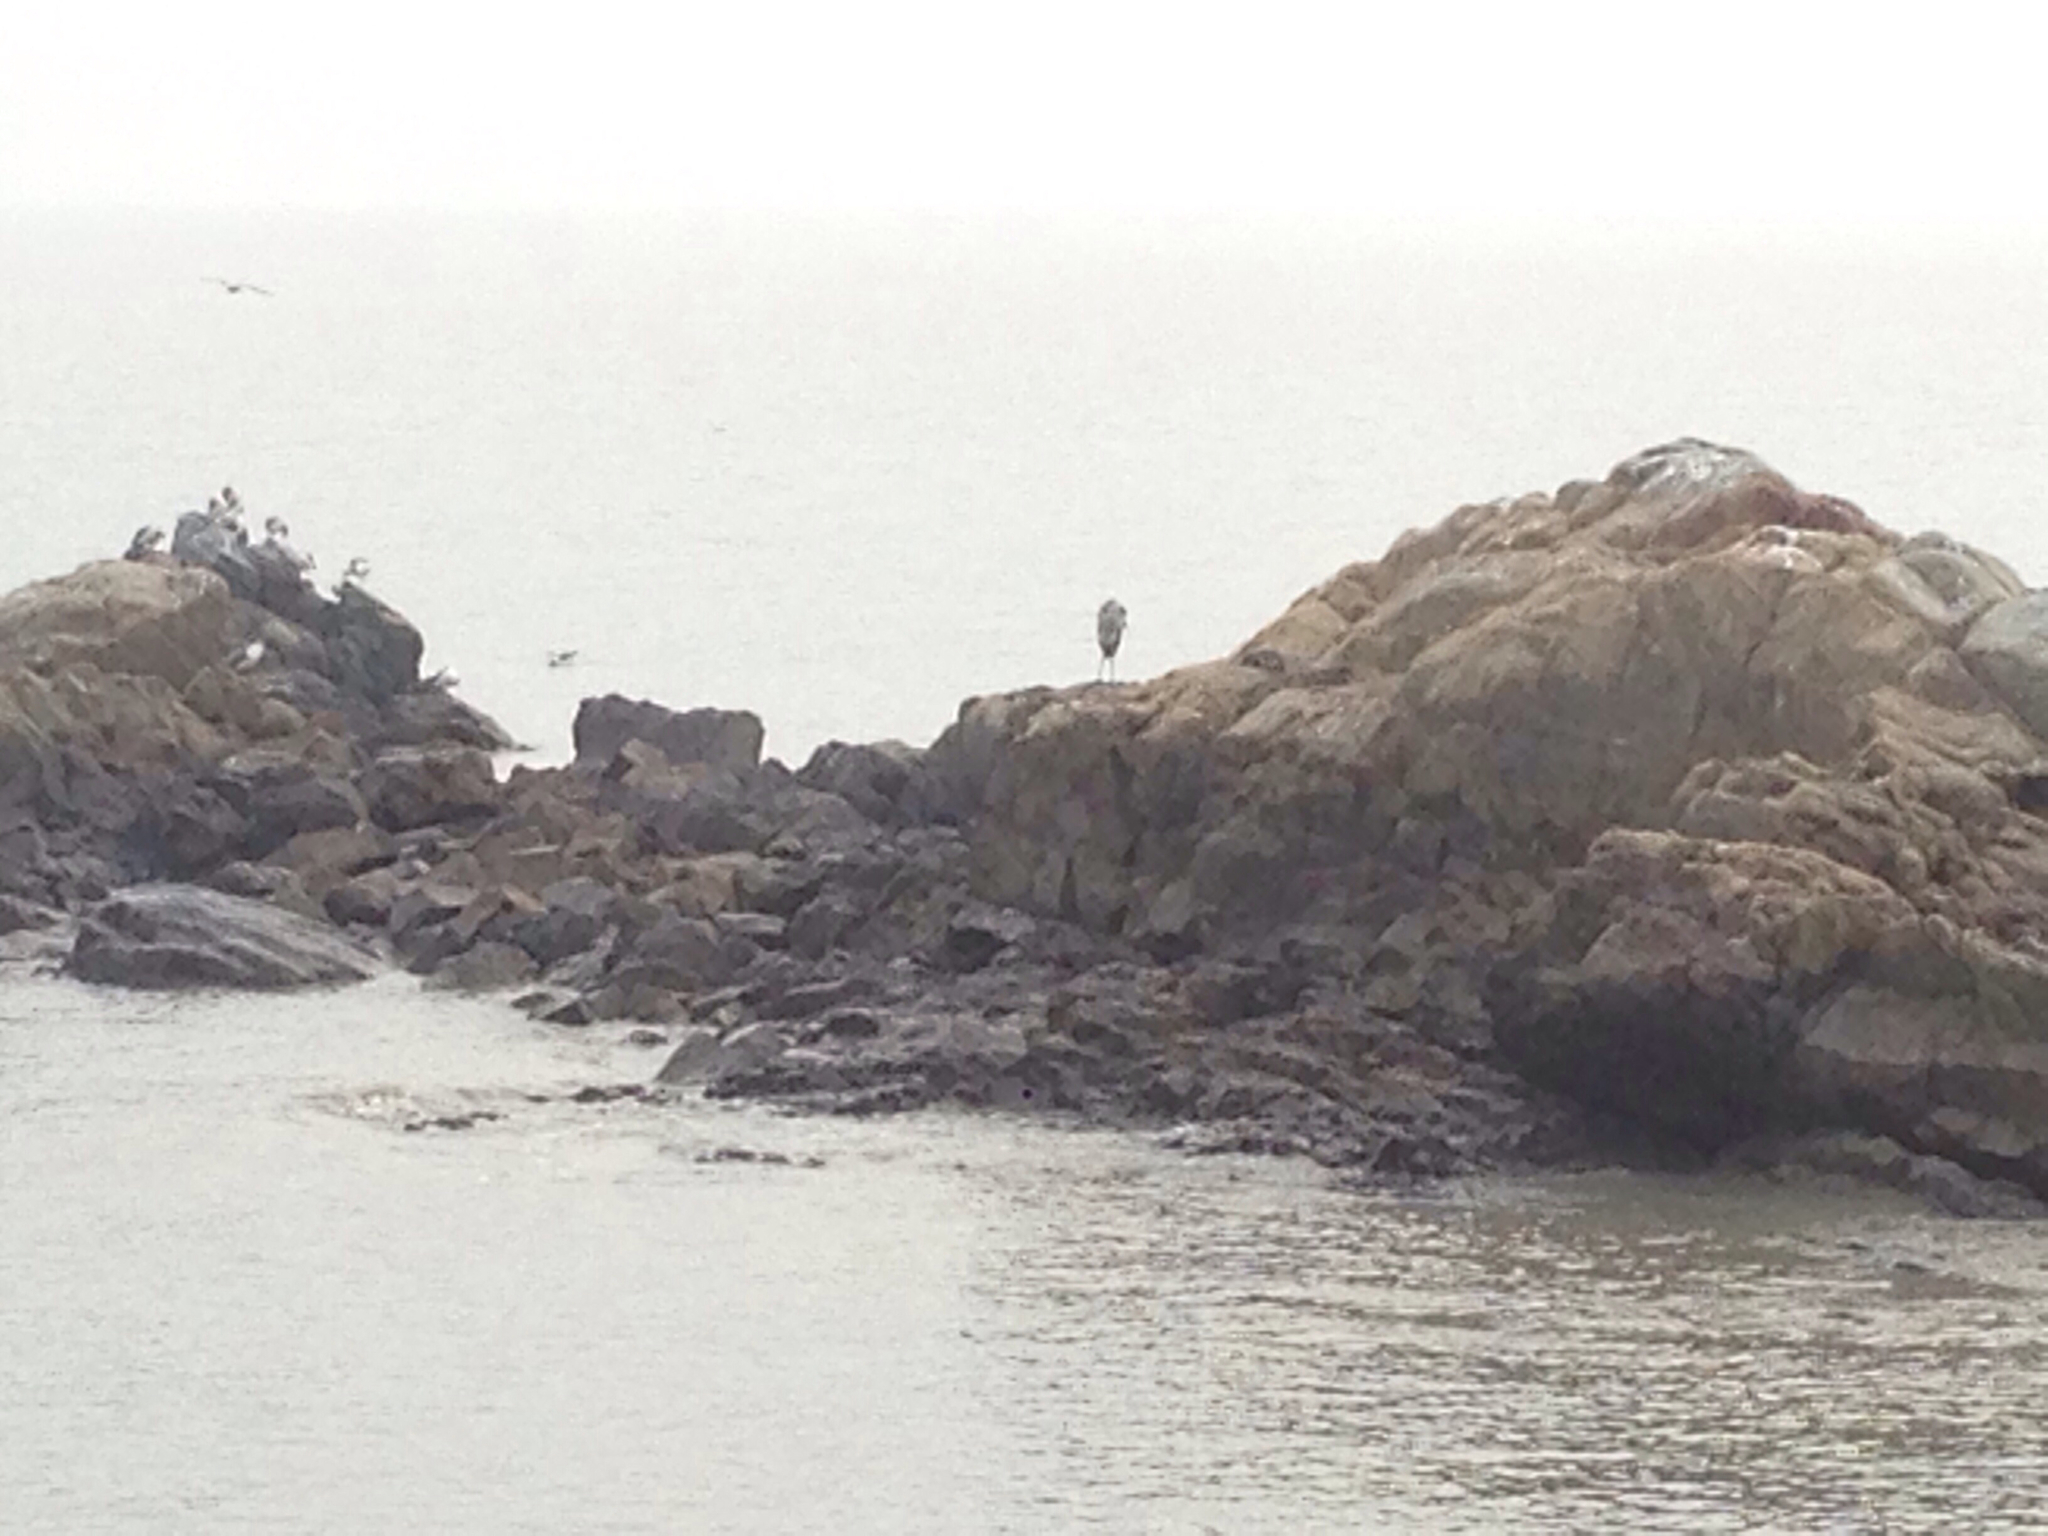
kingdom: Animalia
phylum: Chordata
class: Aves
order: Pelecaniformes
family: Ardeidae
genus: Ardea
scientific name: Ardea cinerea
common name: Grey heron
